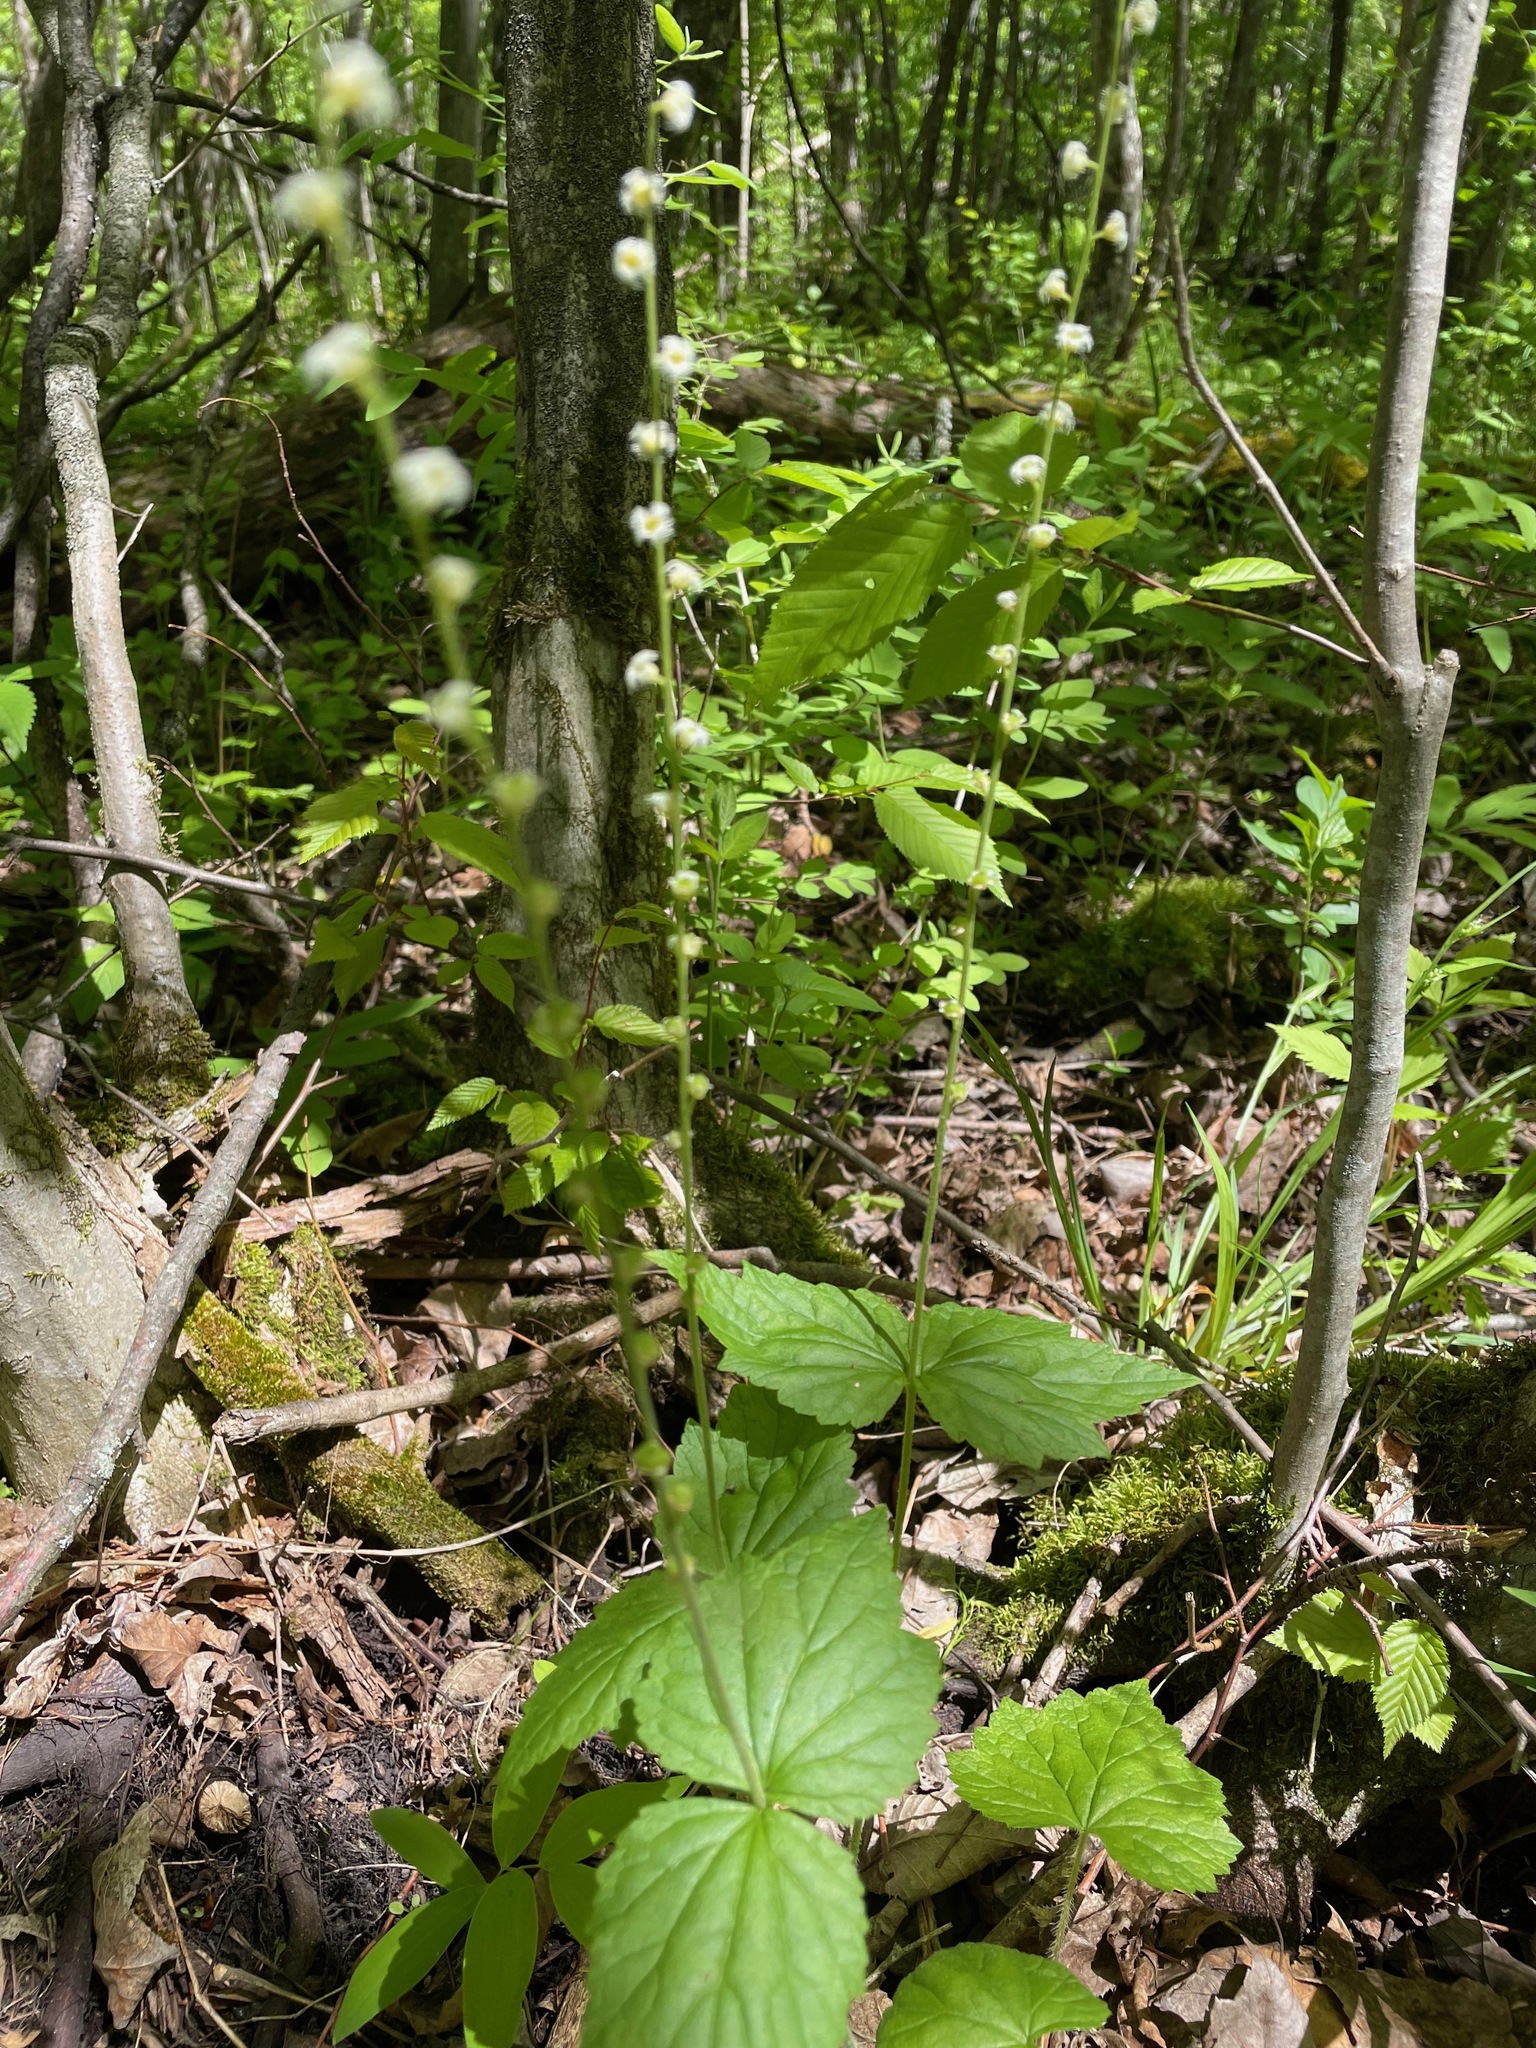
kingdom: Plantae
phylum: Tracheophyta
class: Magnoliopsida
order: Saxifragales
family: Saxifragaceae
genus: Mitella
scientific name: Mitella diphylla
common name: Coolwort
